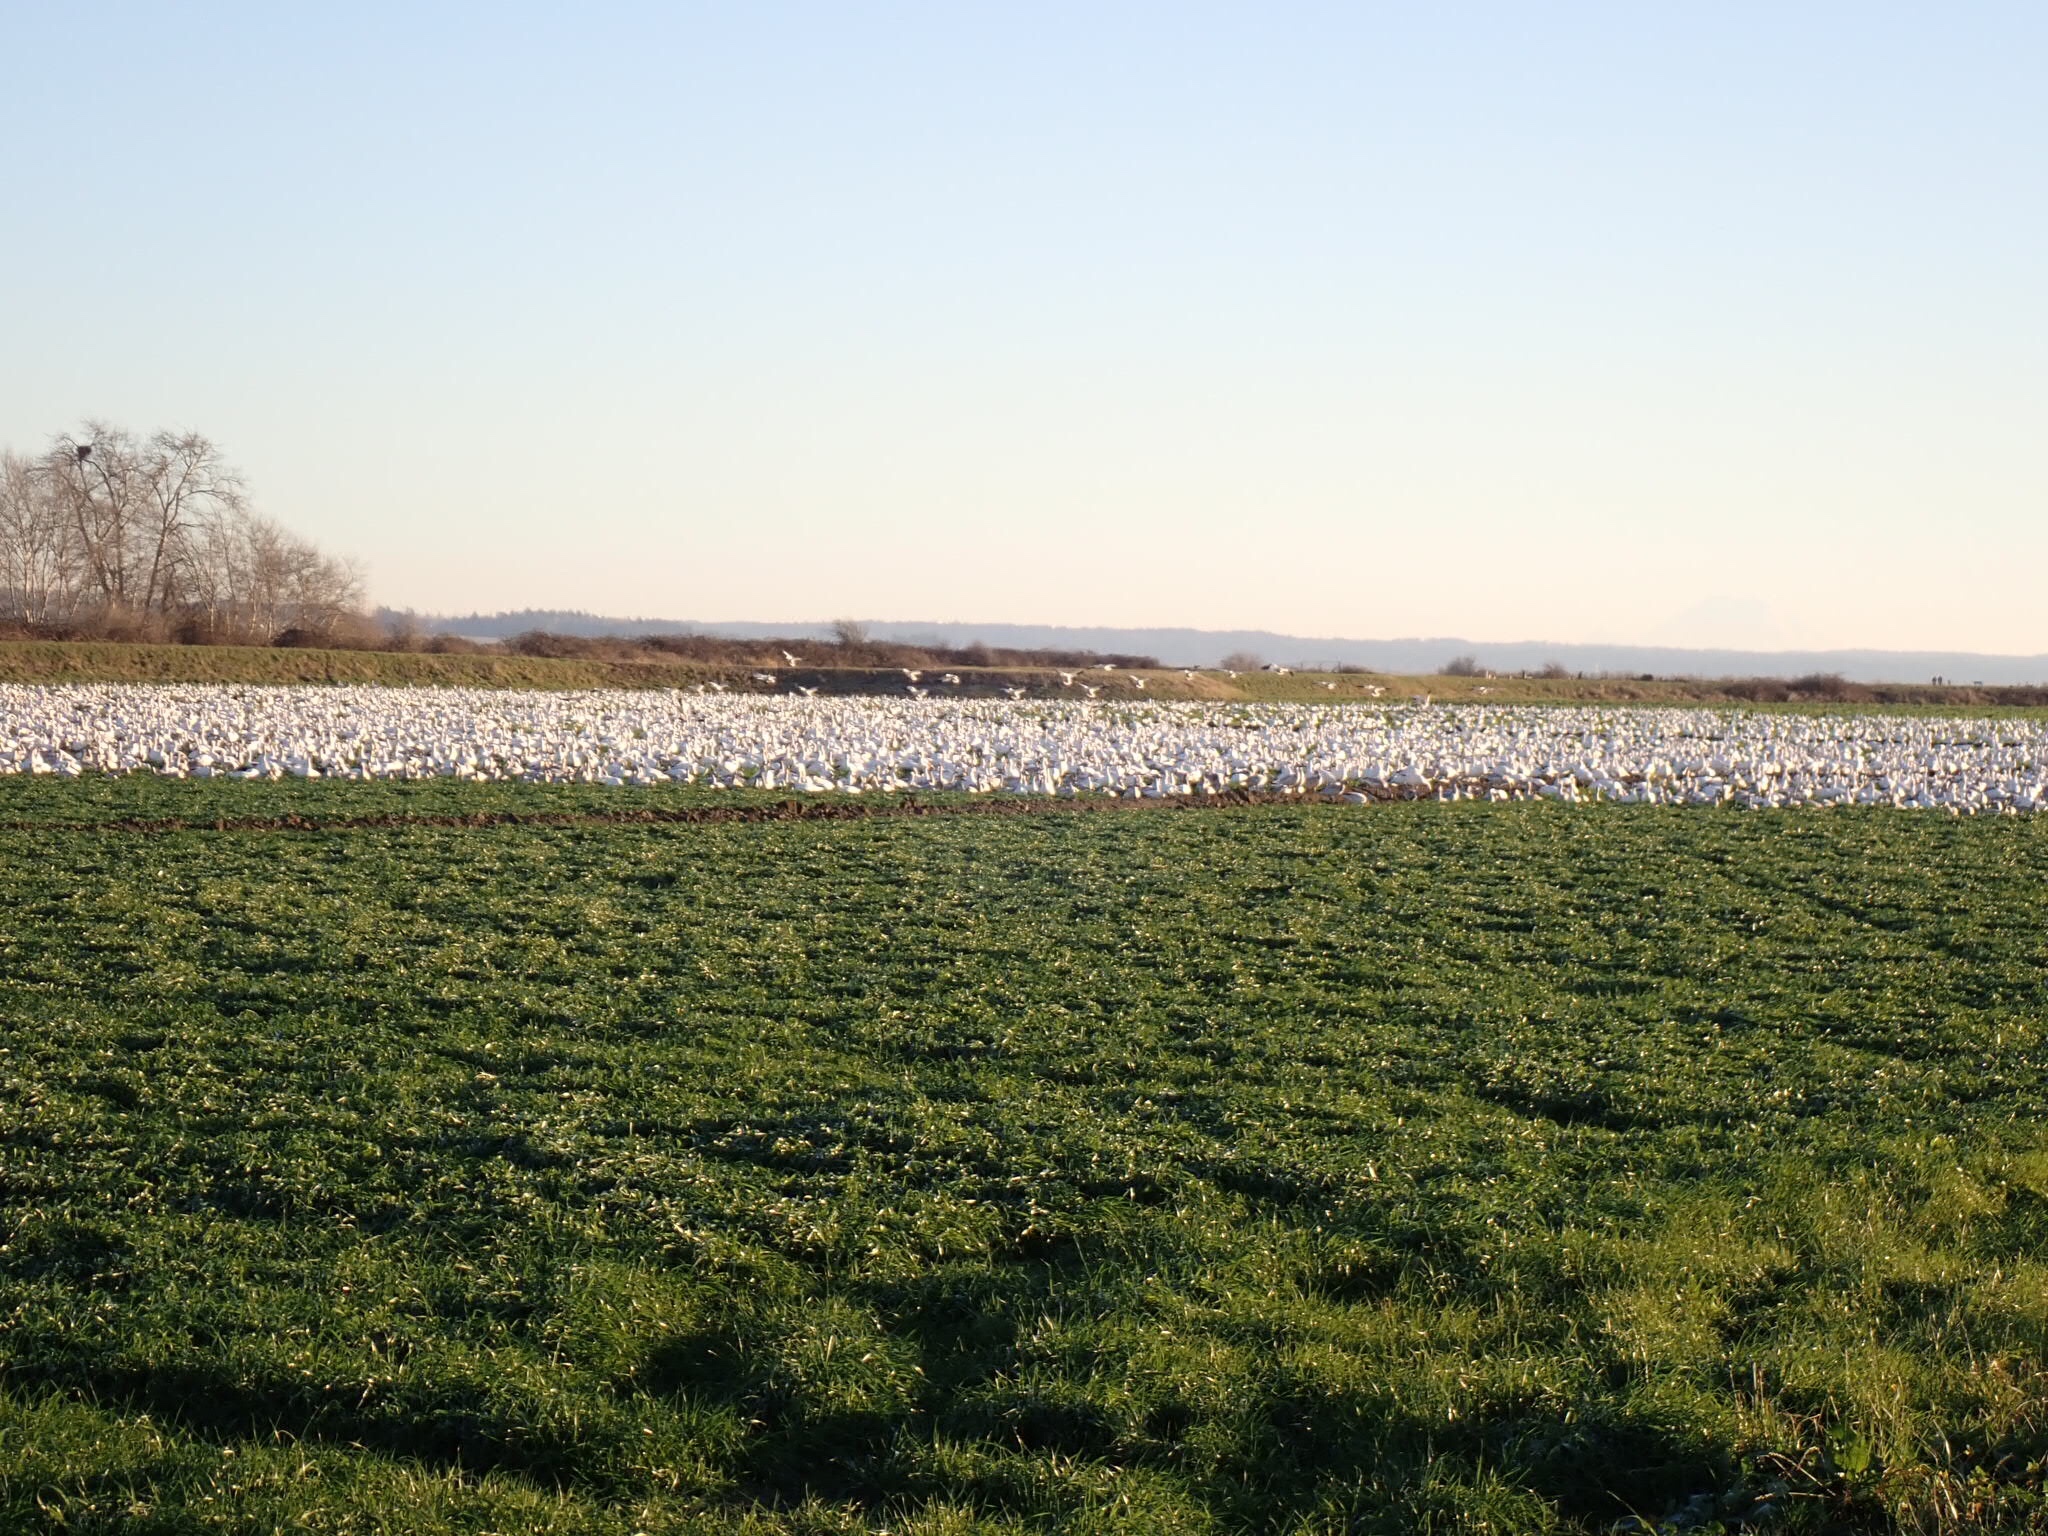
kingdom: Animalia
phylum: Chordata
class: Aves
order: Anseriformes
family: Anatidae
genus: Anser
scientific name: Anser caerulescens
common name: Snow goose
